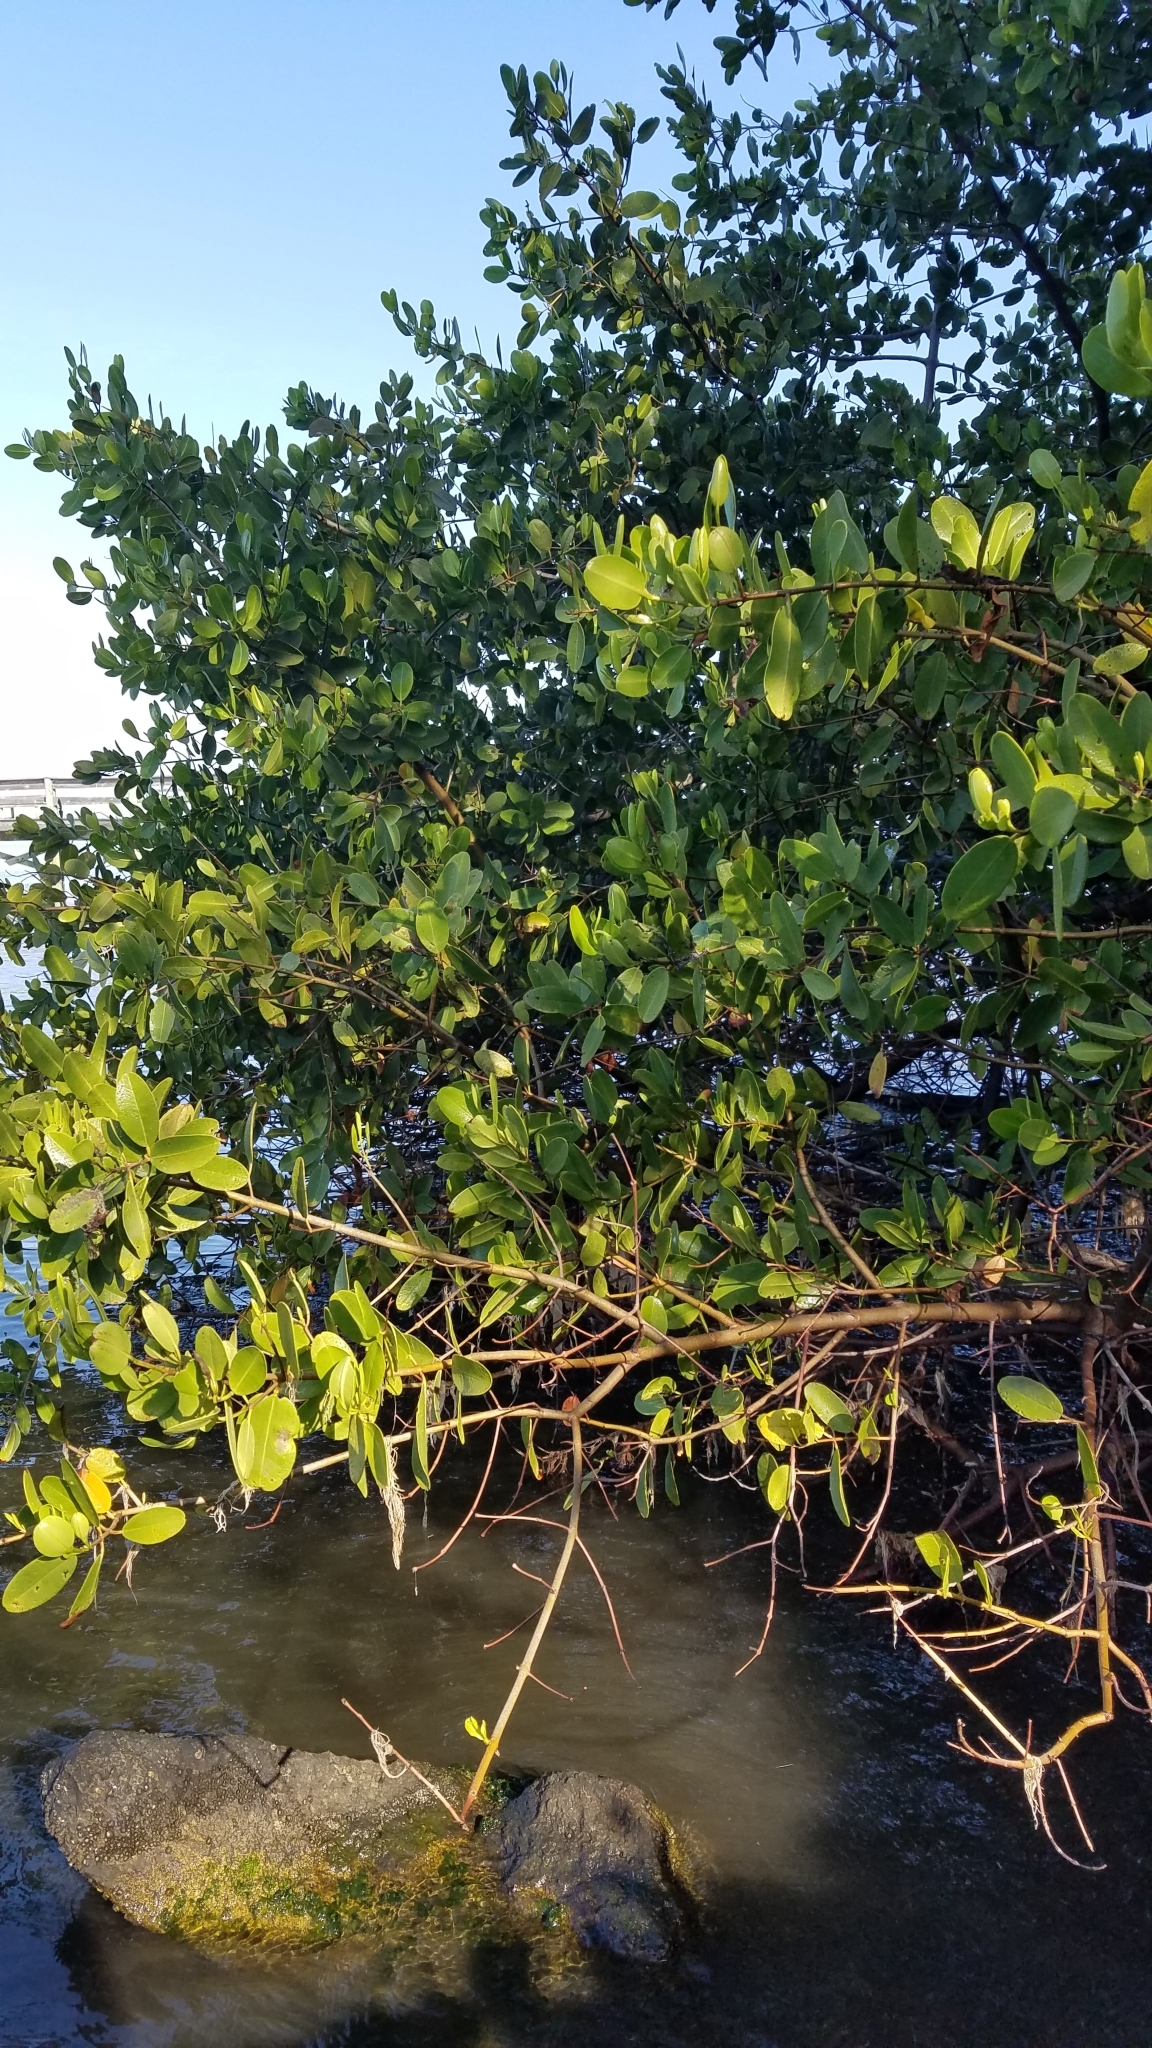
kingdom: Plantae
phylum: Tracheophyta
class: Magnoliopsida
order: Myrtales
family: Combretaceae
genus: Laguncularia
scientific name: Laguncularia racemosa
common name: White mangrove
